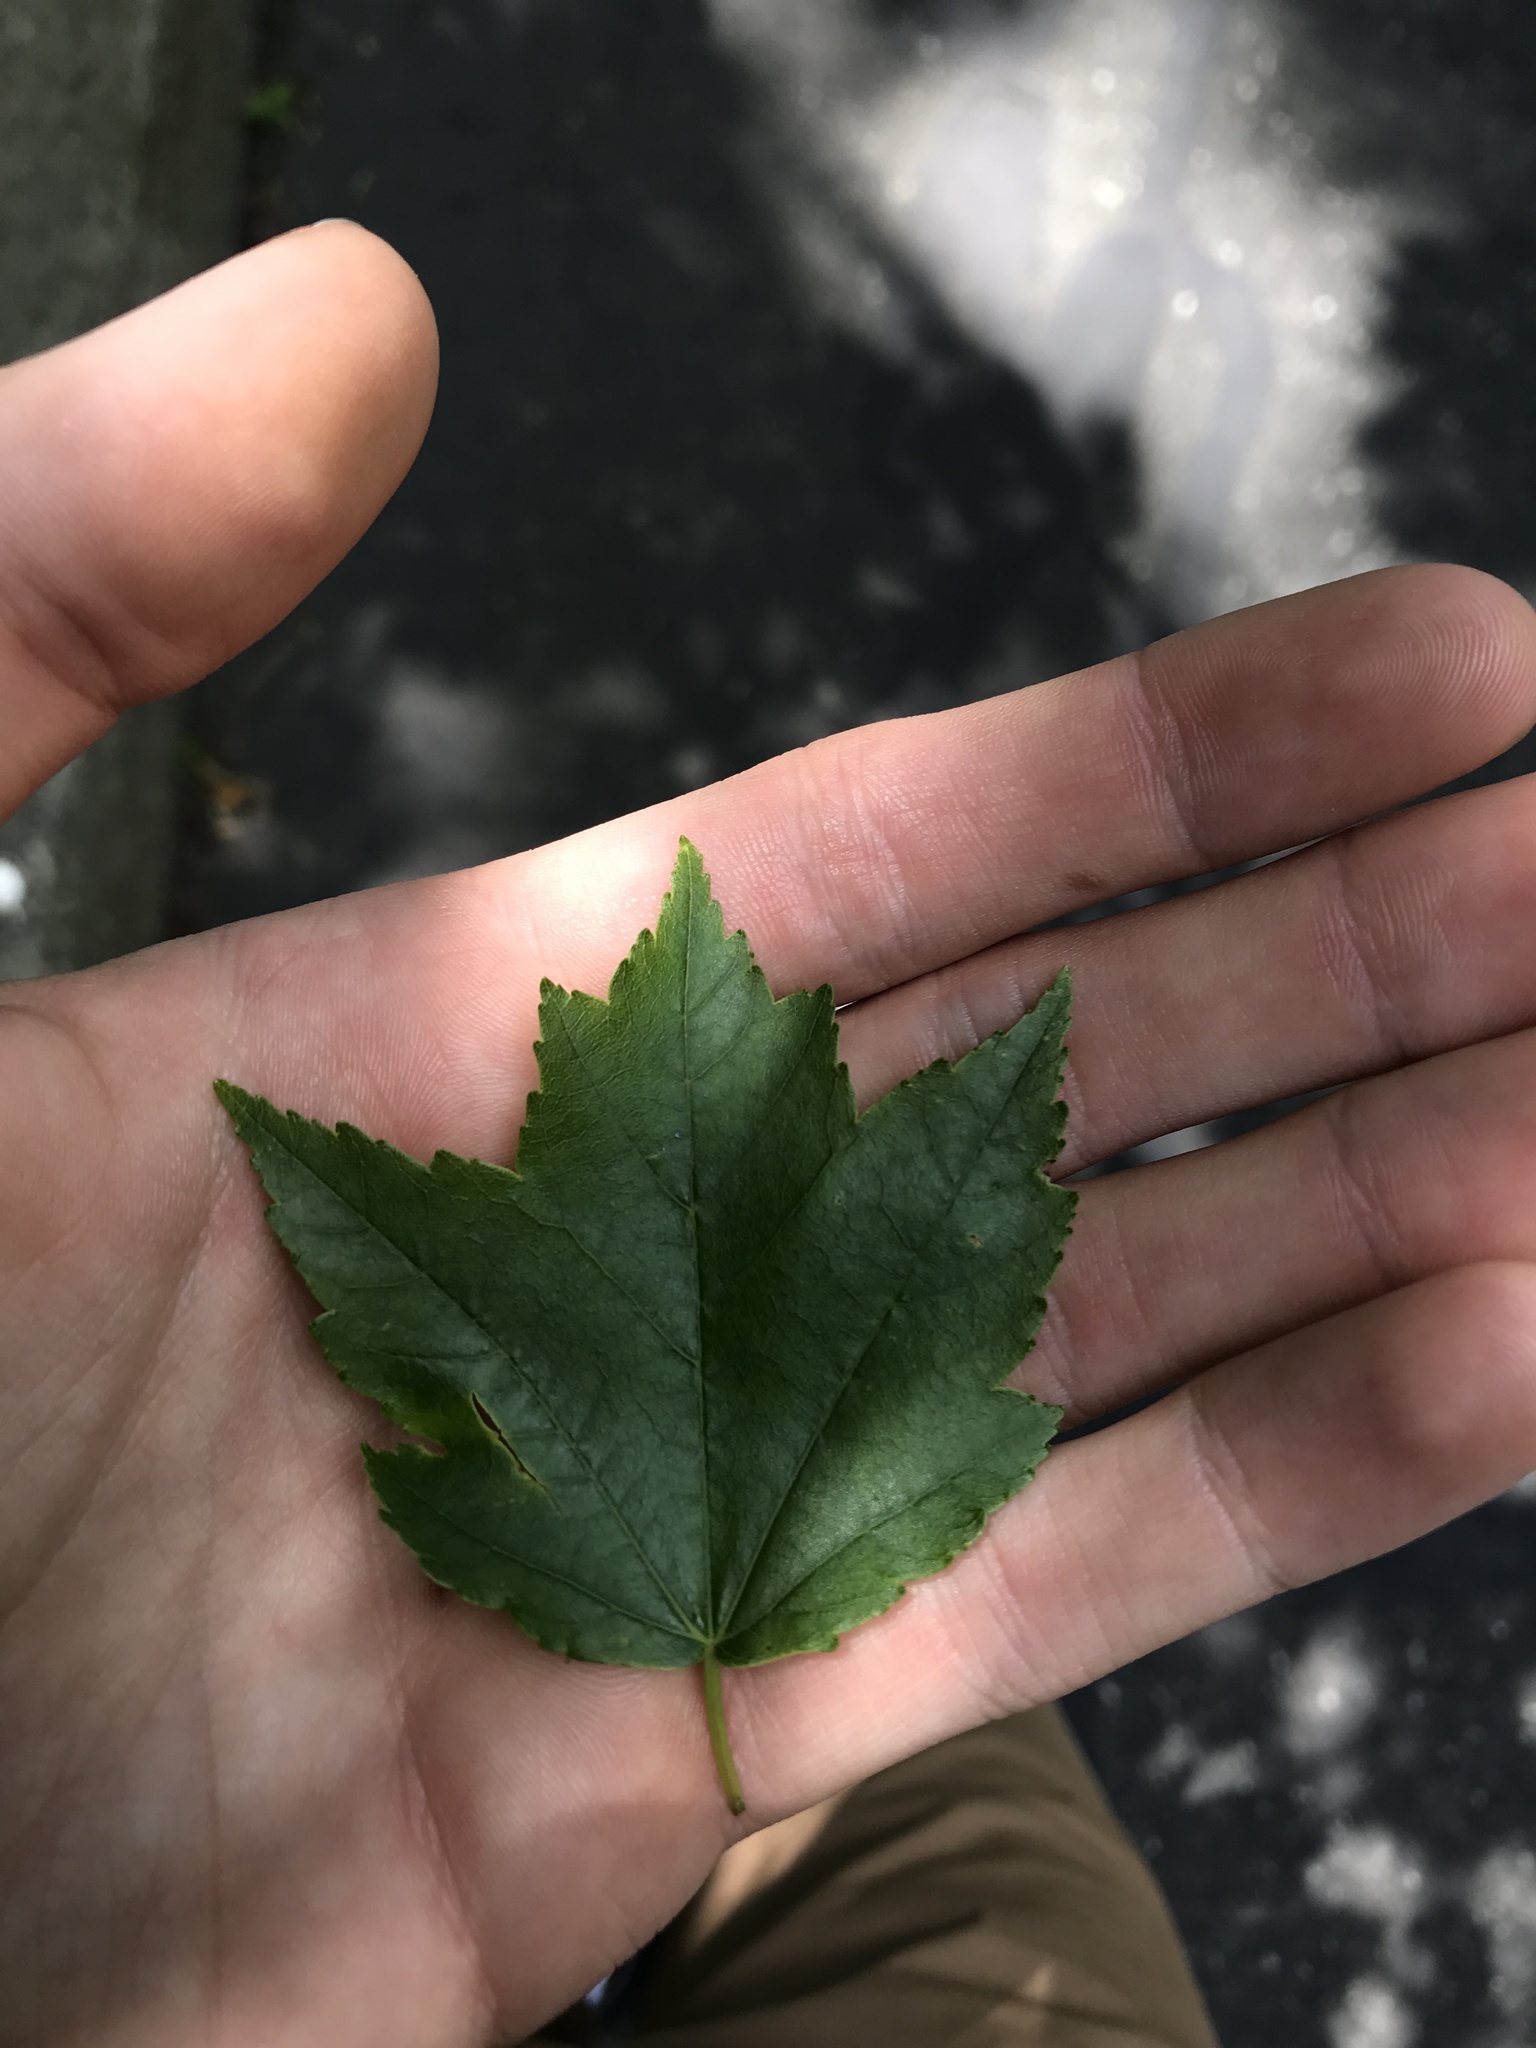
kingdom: Plantae
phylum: Tracheophyta
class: Magnoliopsida
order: Sapindales
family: Sapindaceae
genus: Acer
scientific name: Acer rubrum
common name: Red maple
